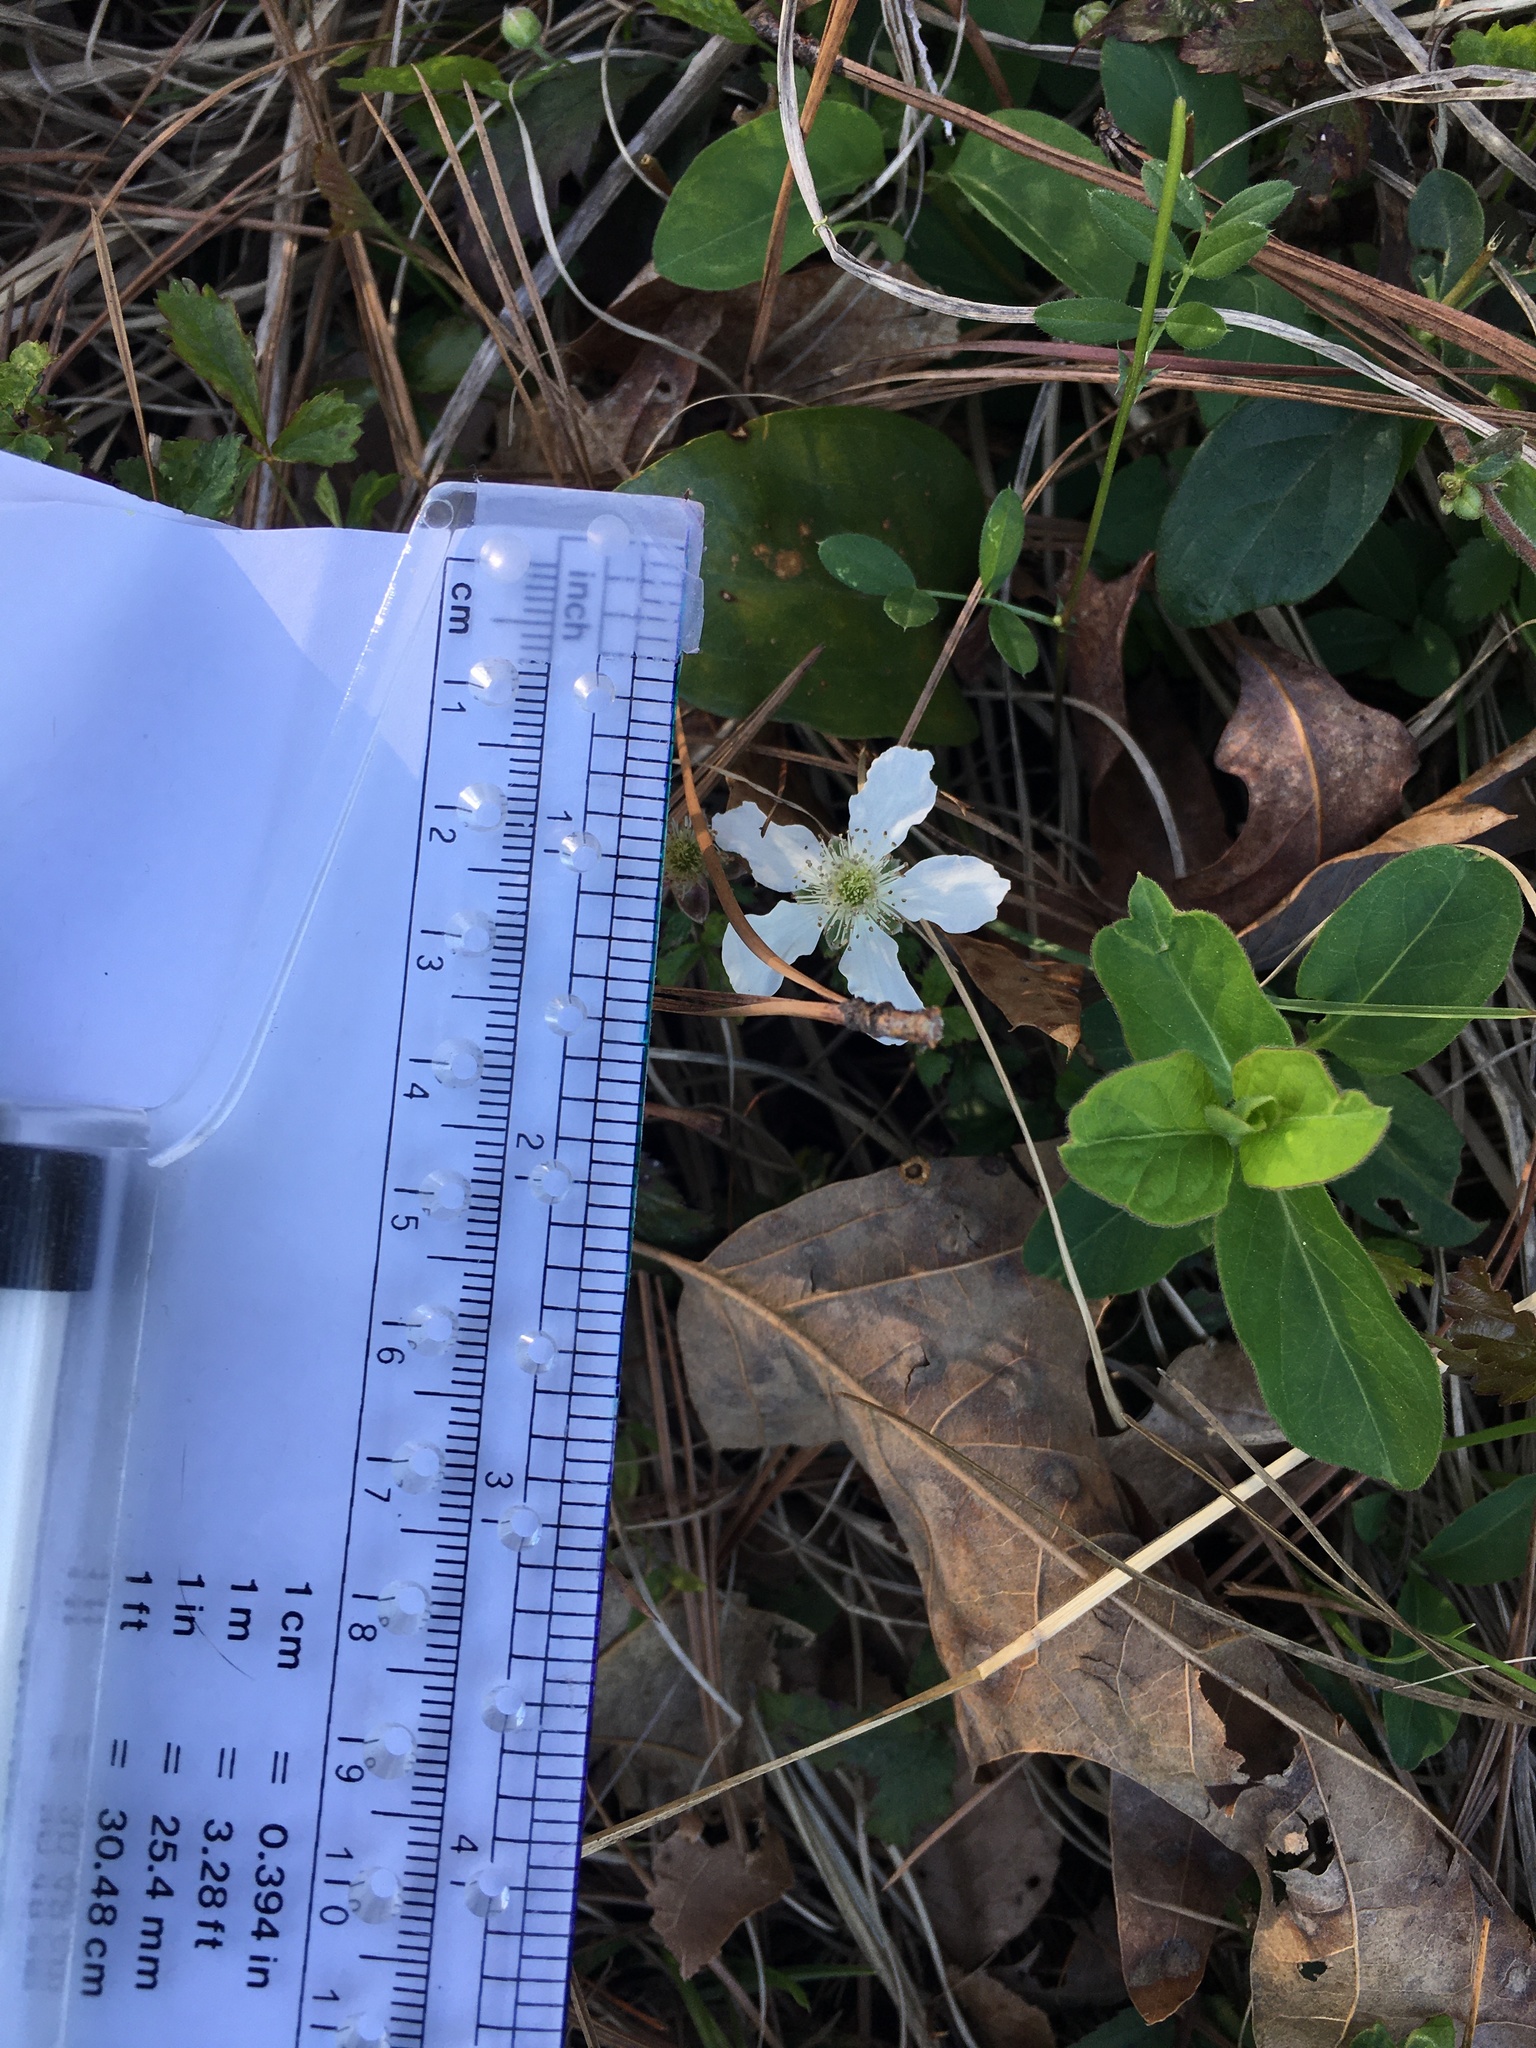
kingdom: Plantae
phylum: Tracheophyta
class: Magnoliopsida
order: Rosales
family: Rosaceae
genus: Rubus
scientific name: Rubus trivialis
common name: Southern dewberry
